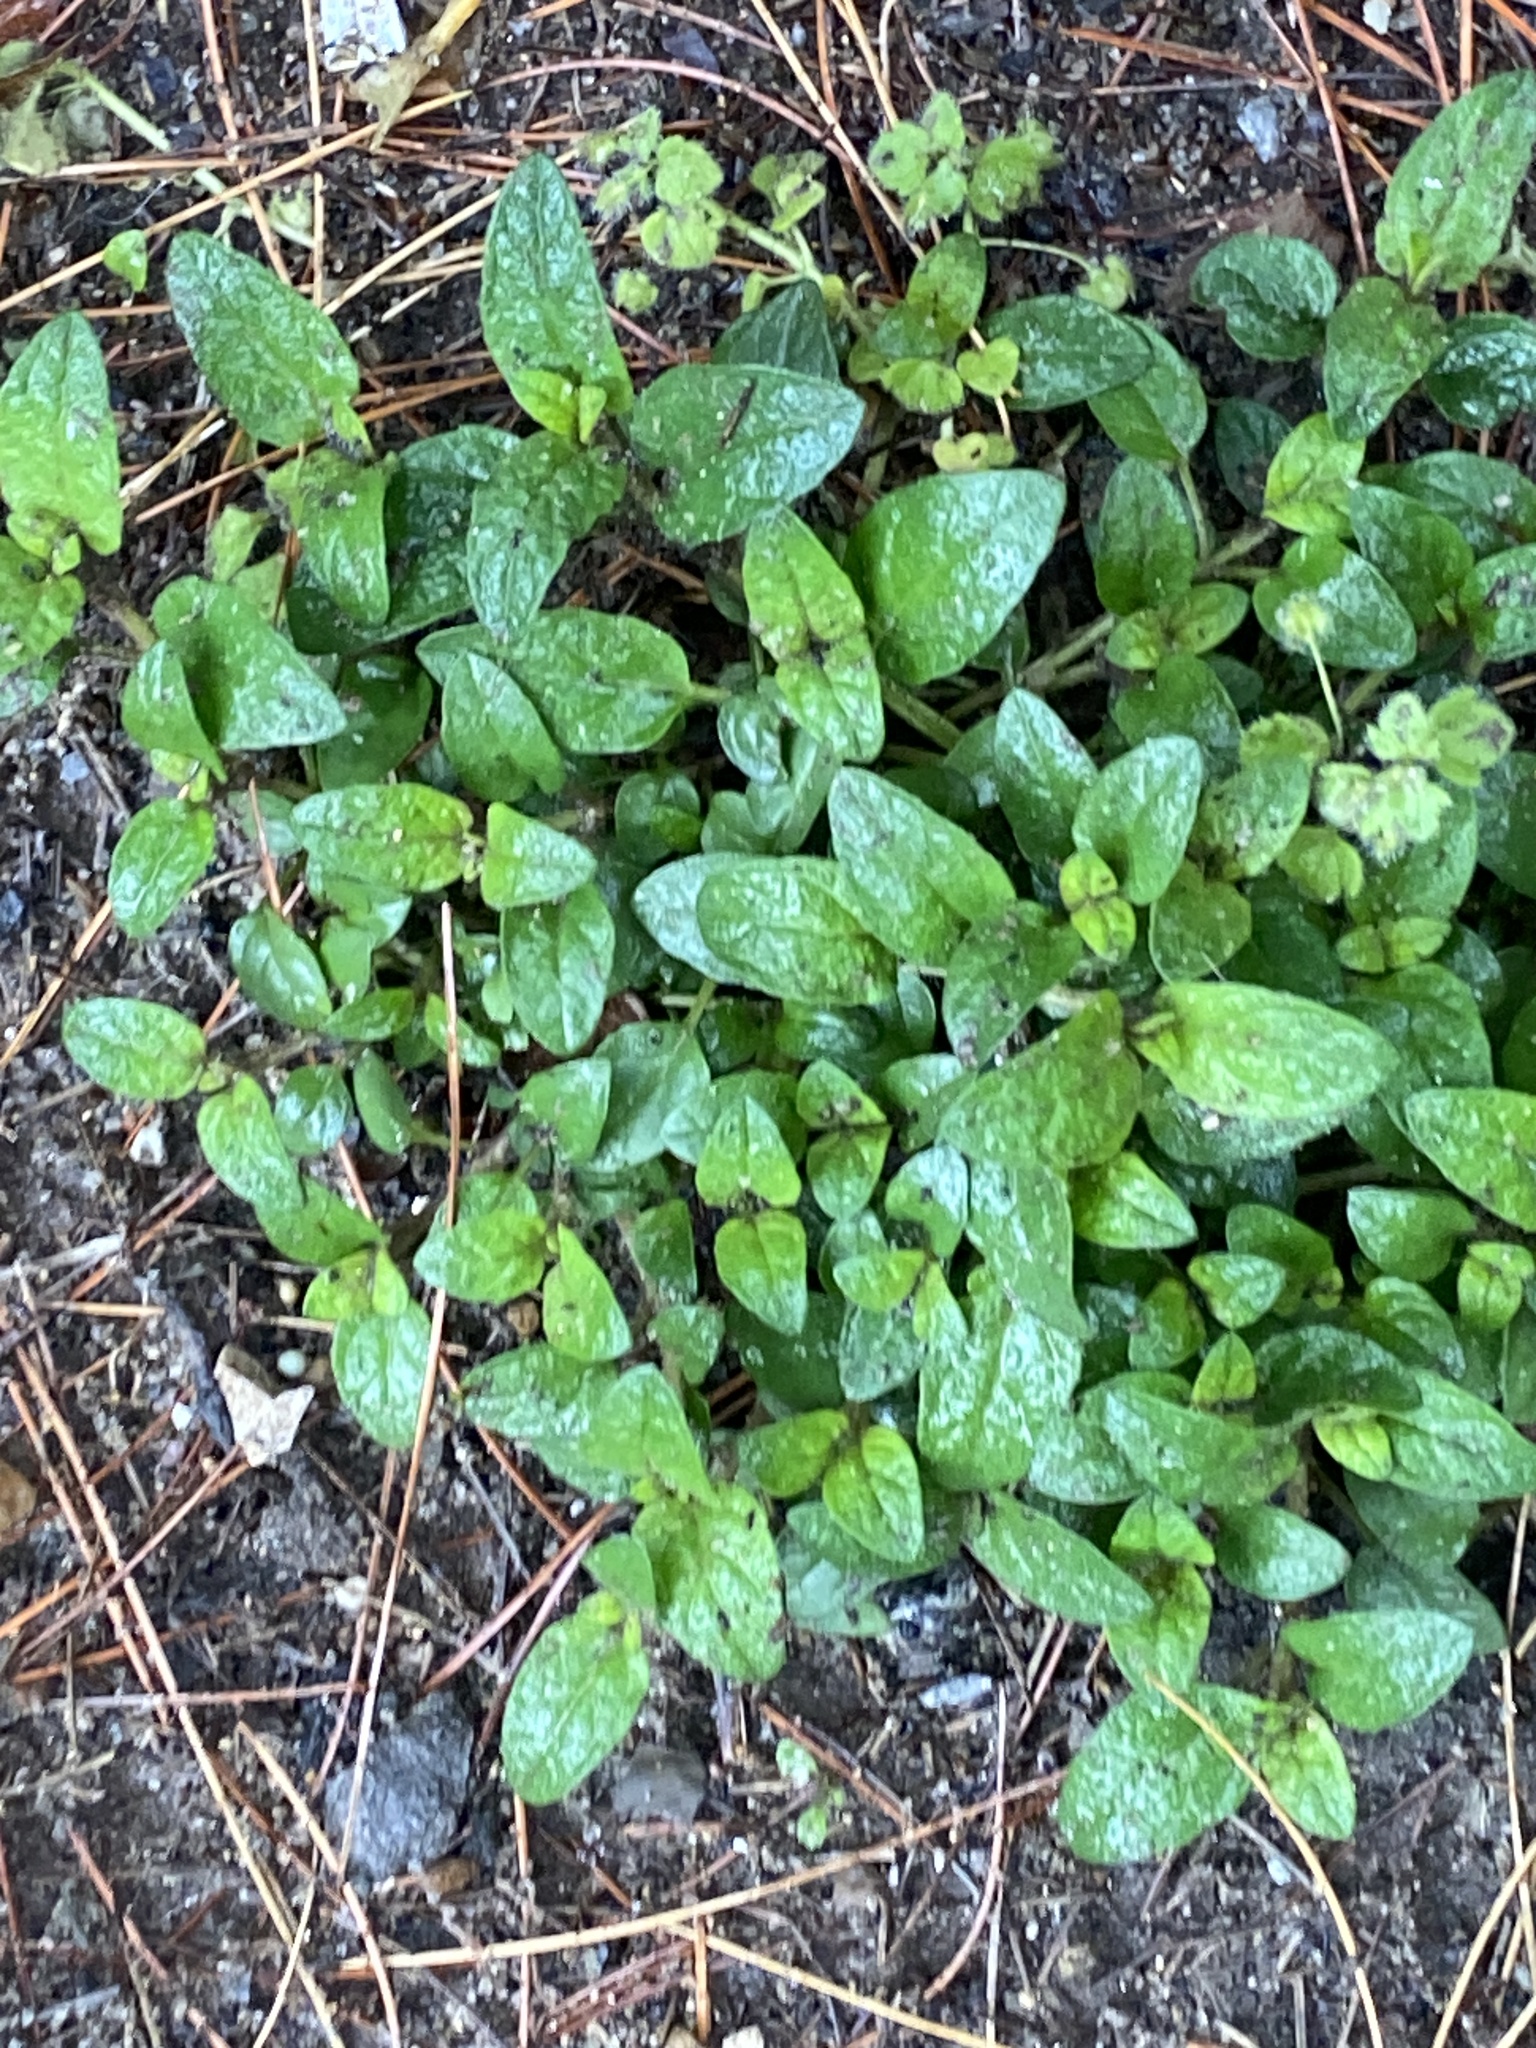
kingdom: Plantae
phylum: Tracheophyta
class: Magnoliopsida
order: Lamiales
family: Lamiaceae
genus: Prunella
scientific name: Prunella vulgaris
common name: Heal-all
